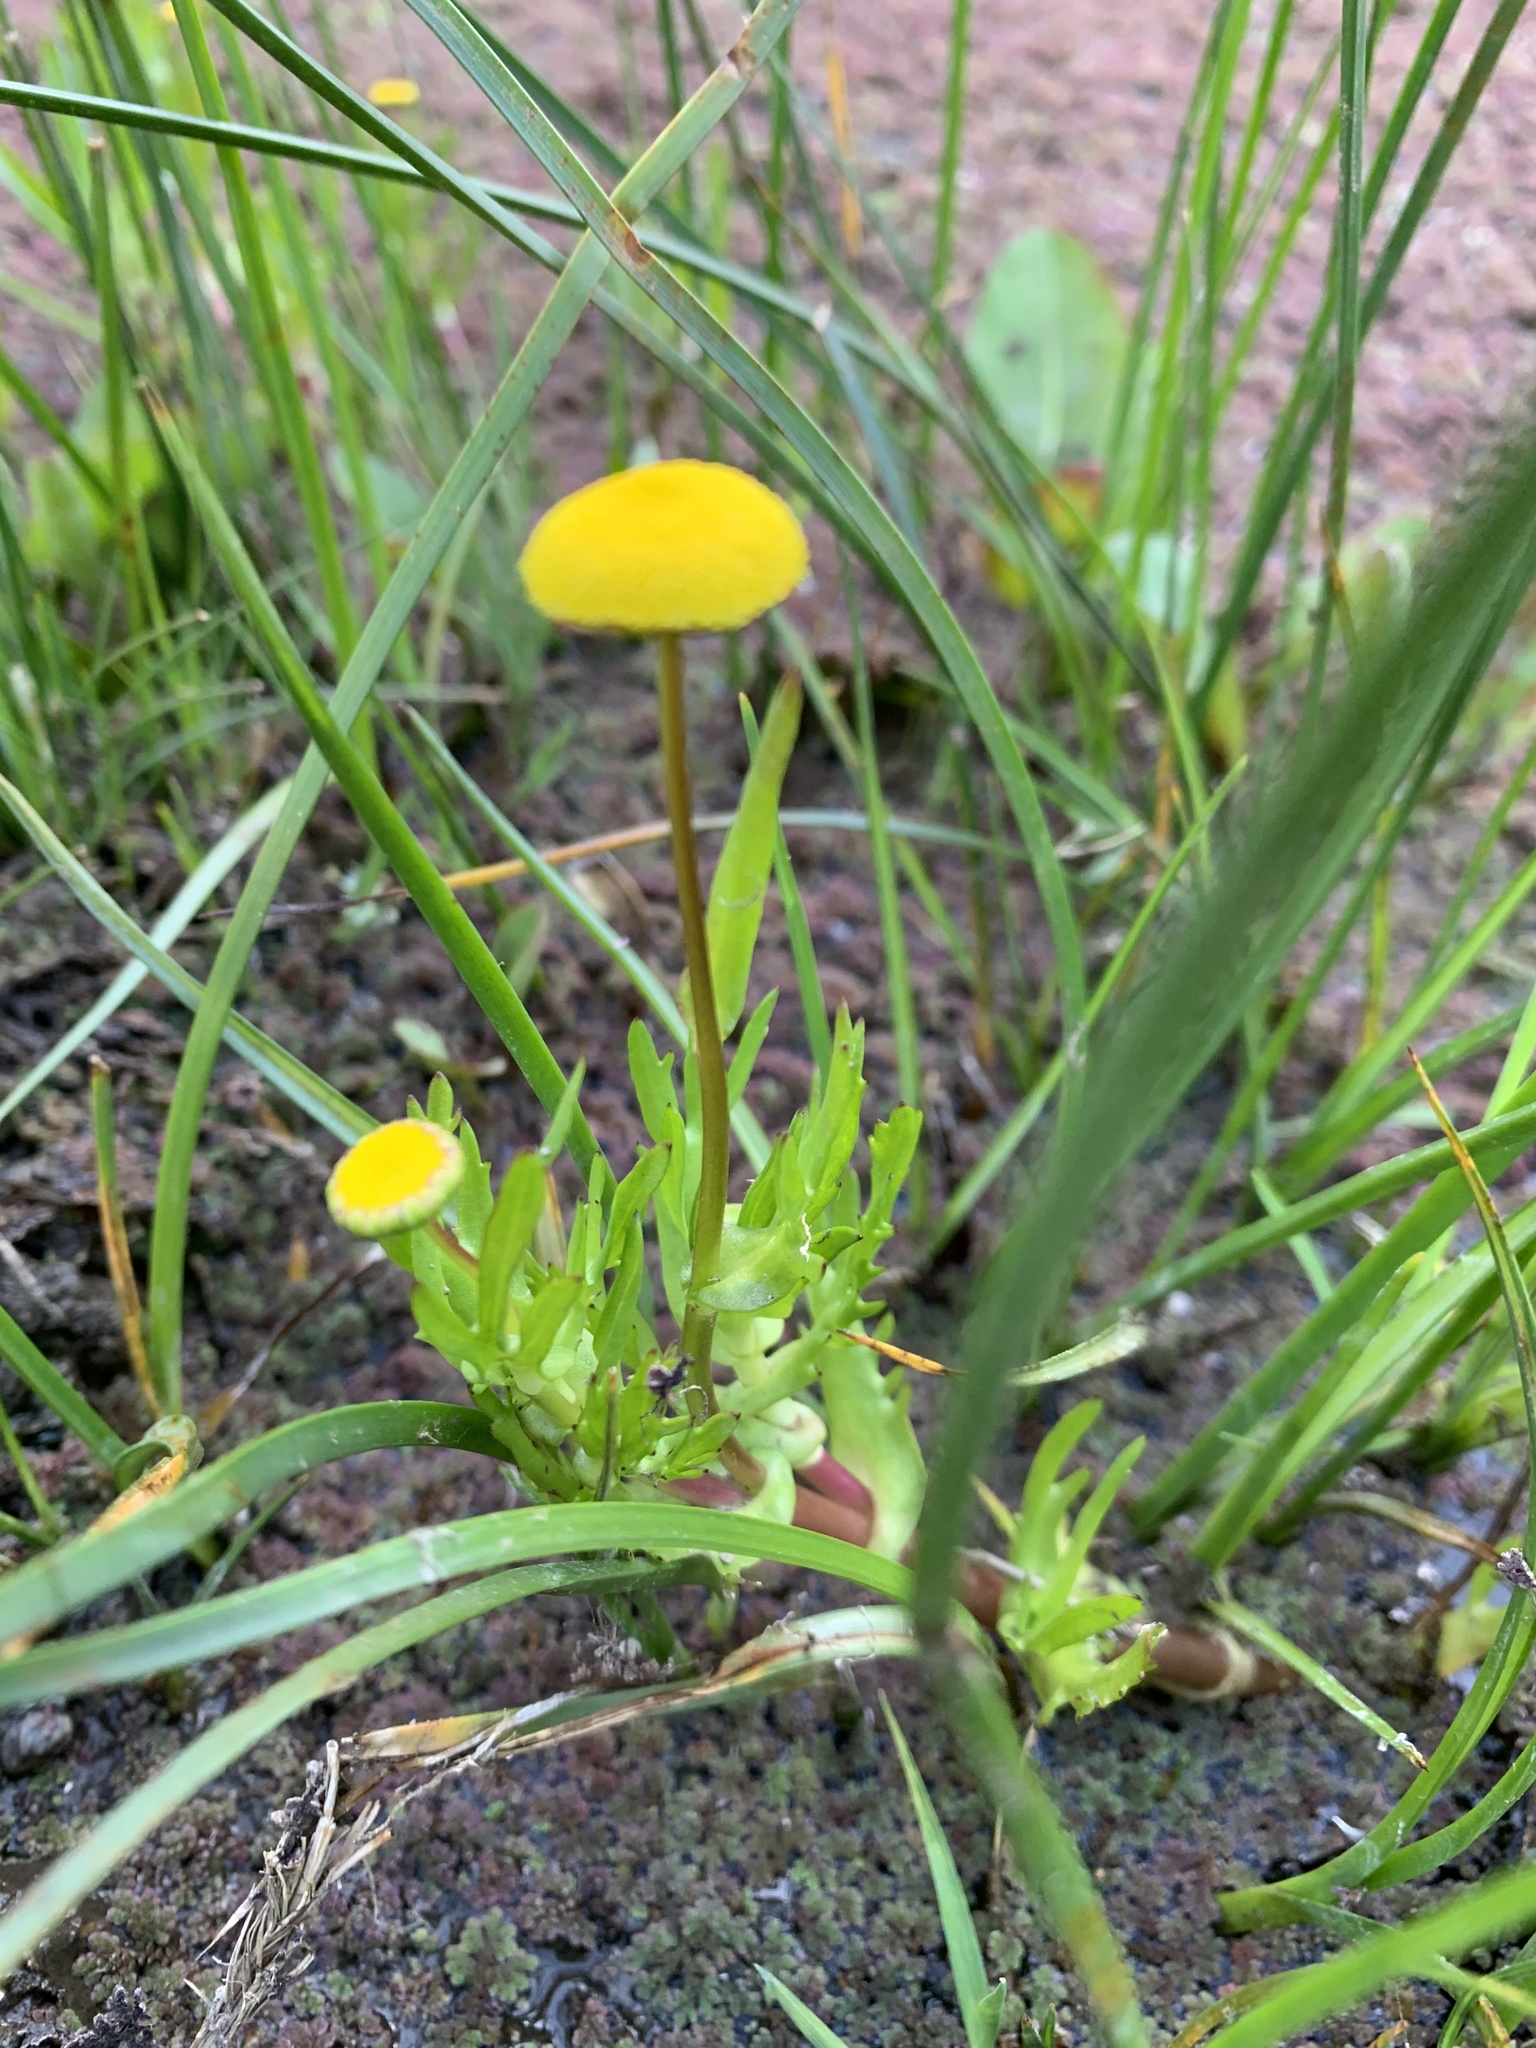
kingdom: Plantae
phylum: Tracheophyta
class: Magnoliopsida
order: Asterales
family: Asteraceae
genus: Cotula
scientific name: Cotula coronopifolia
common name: Buttonweed
